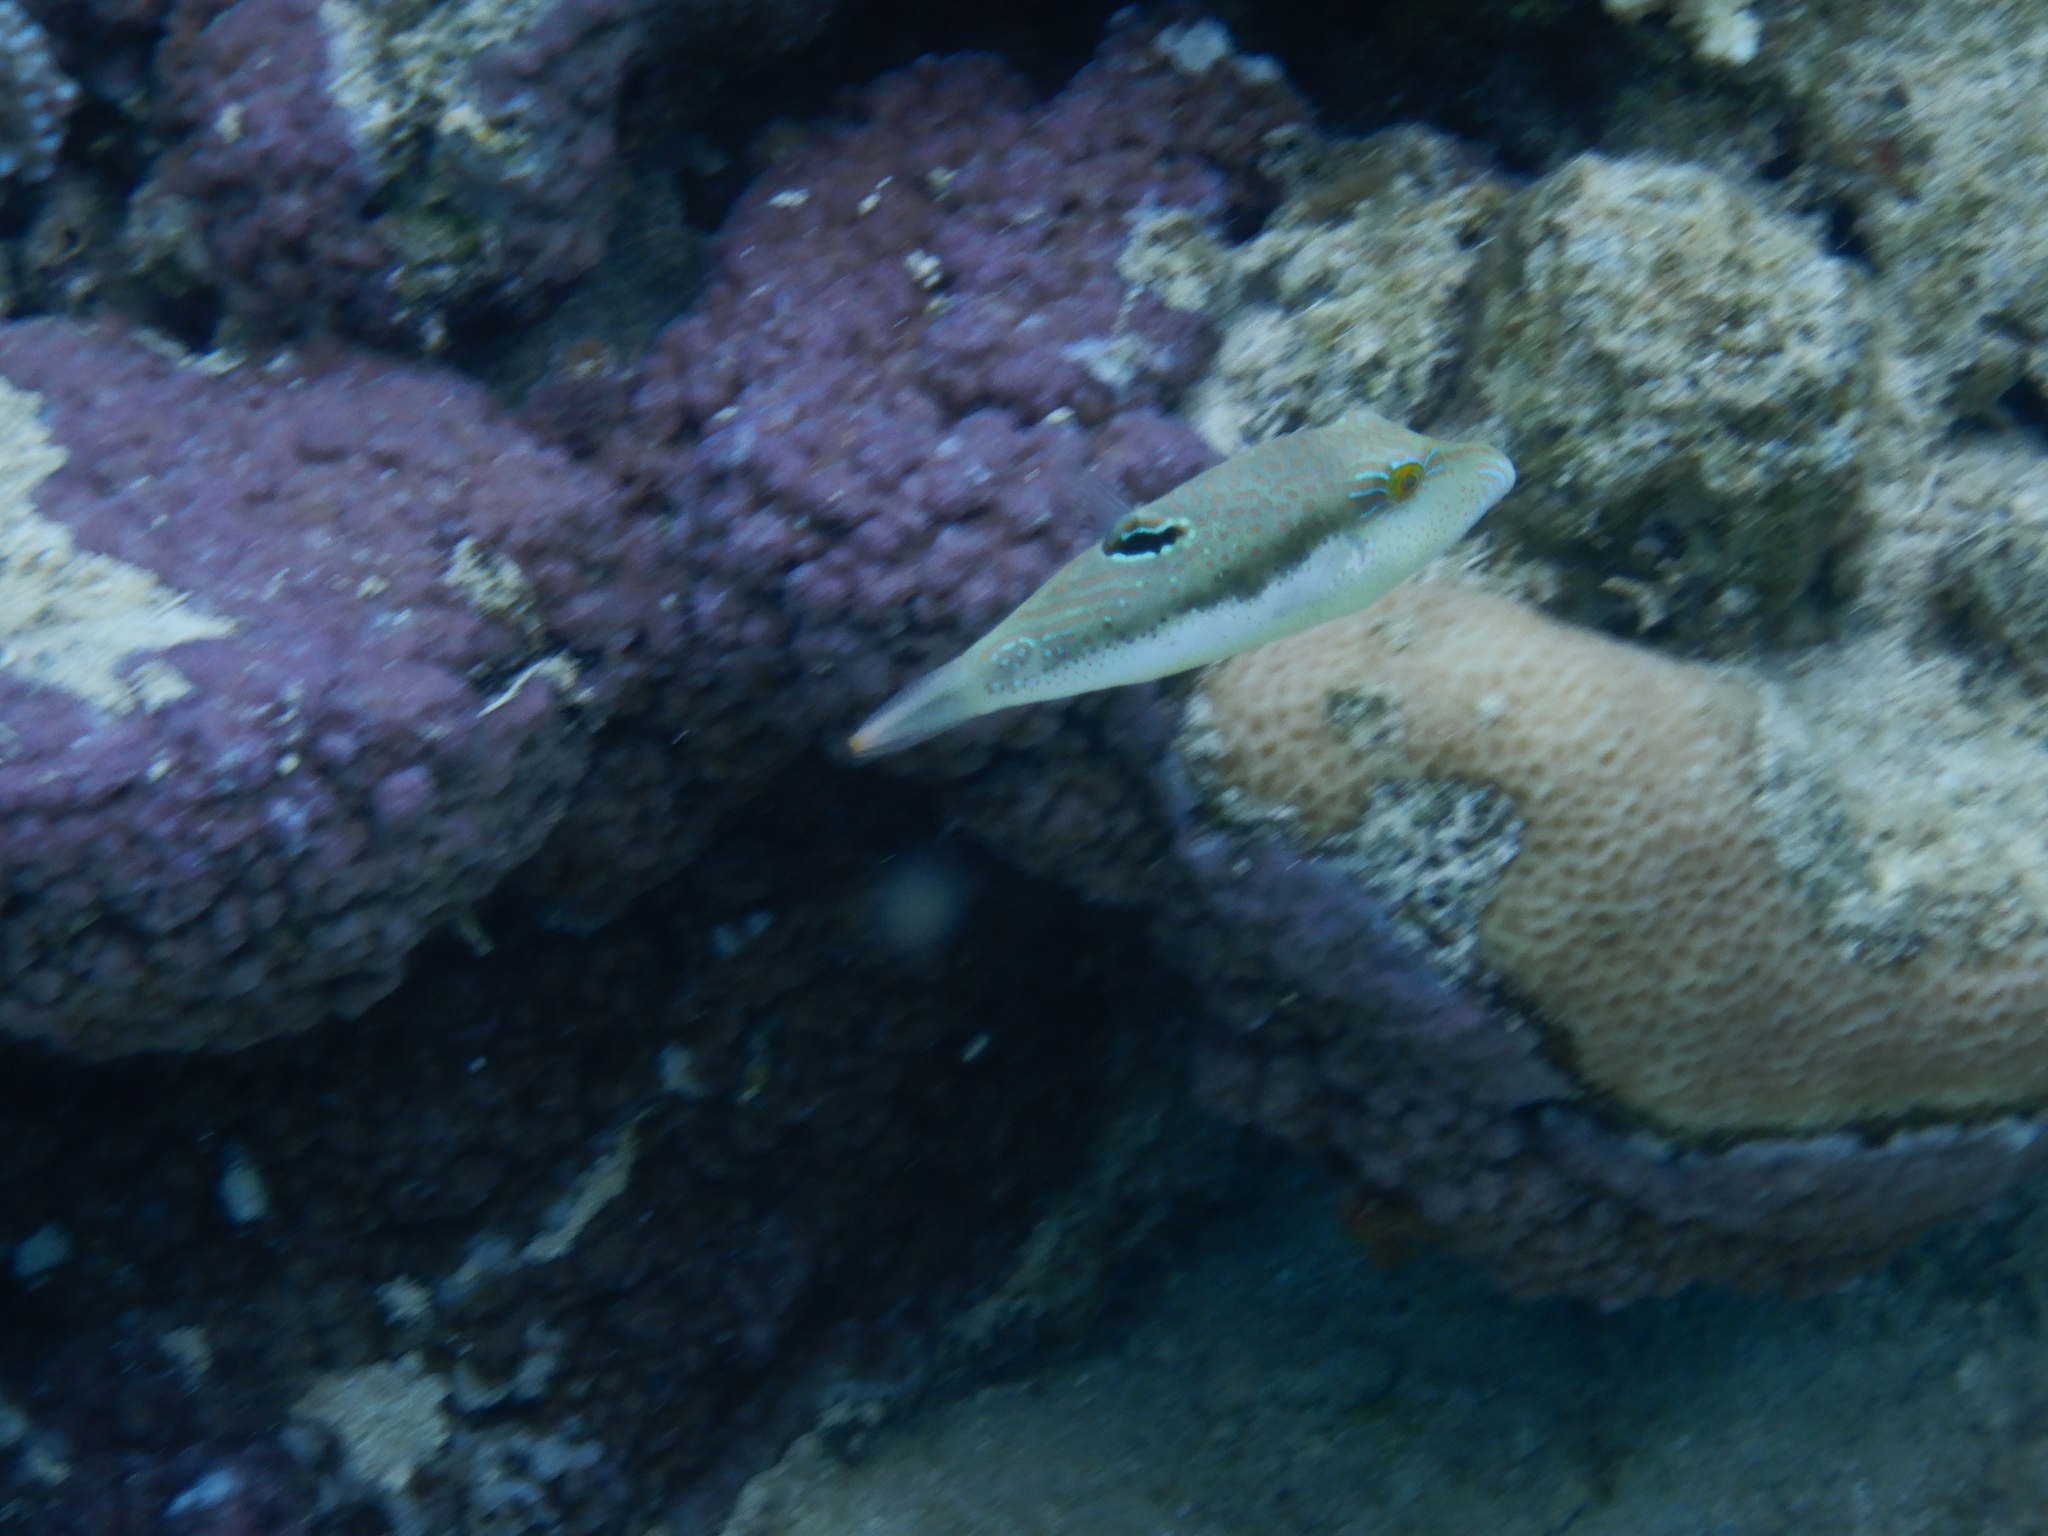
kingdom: Animalia
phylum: Chordata
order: Tetraodontiformes
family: Tetraodontidae
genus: Canthigaster
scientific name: Canthigaster bennetti
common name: Bennett's pufferfish
